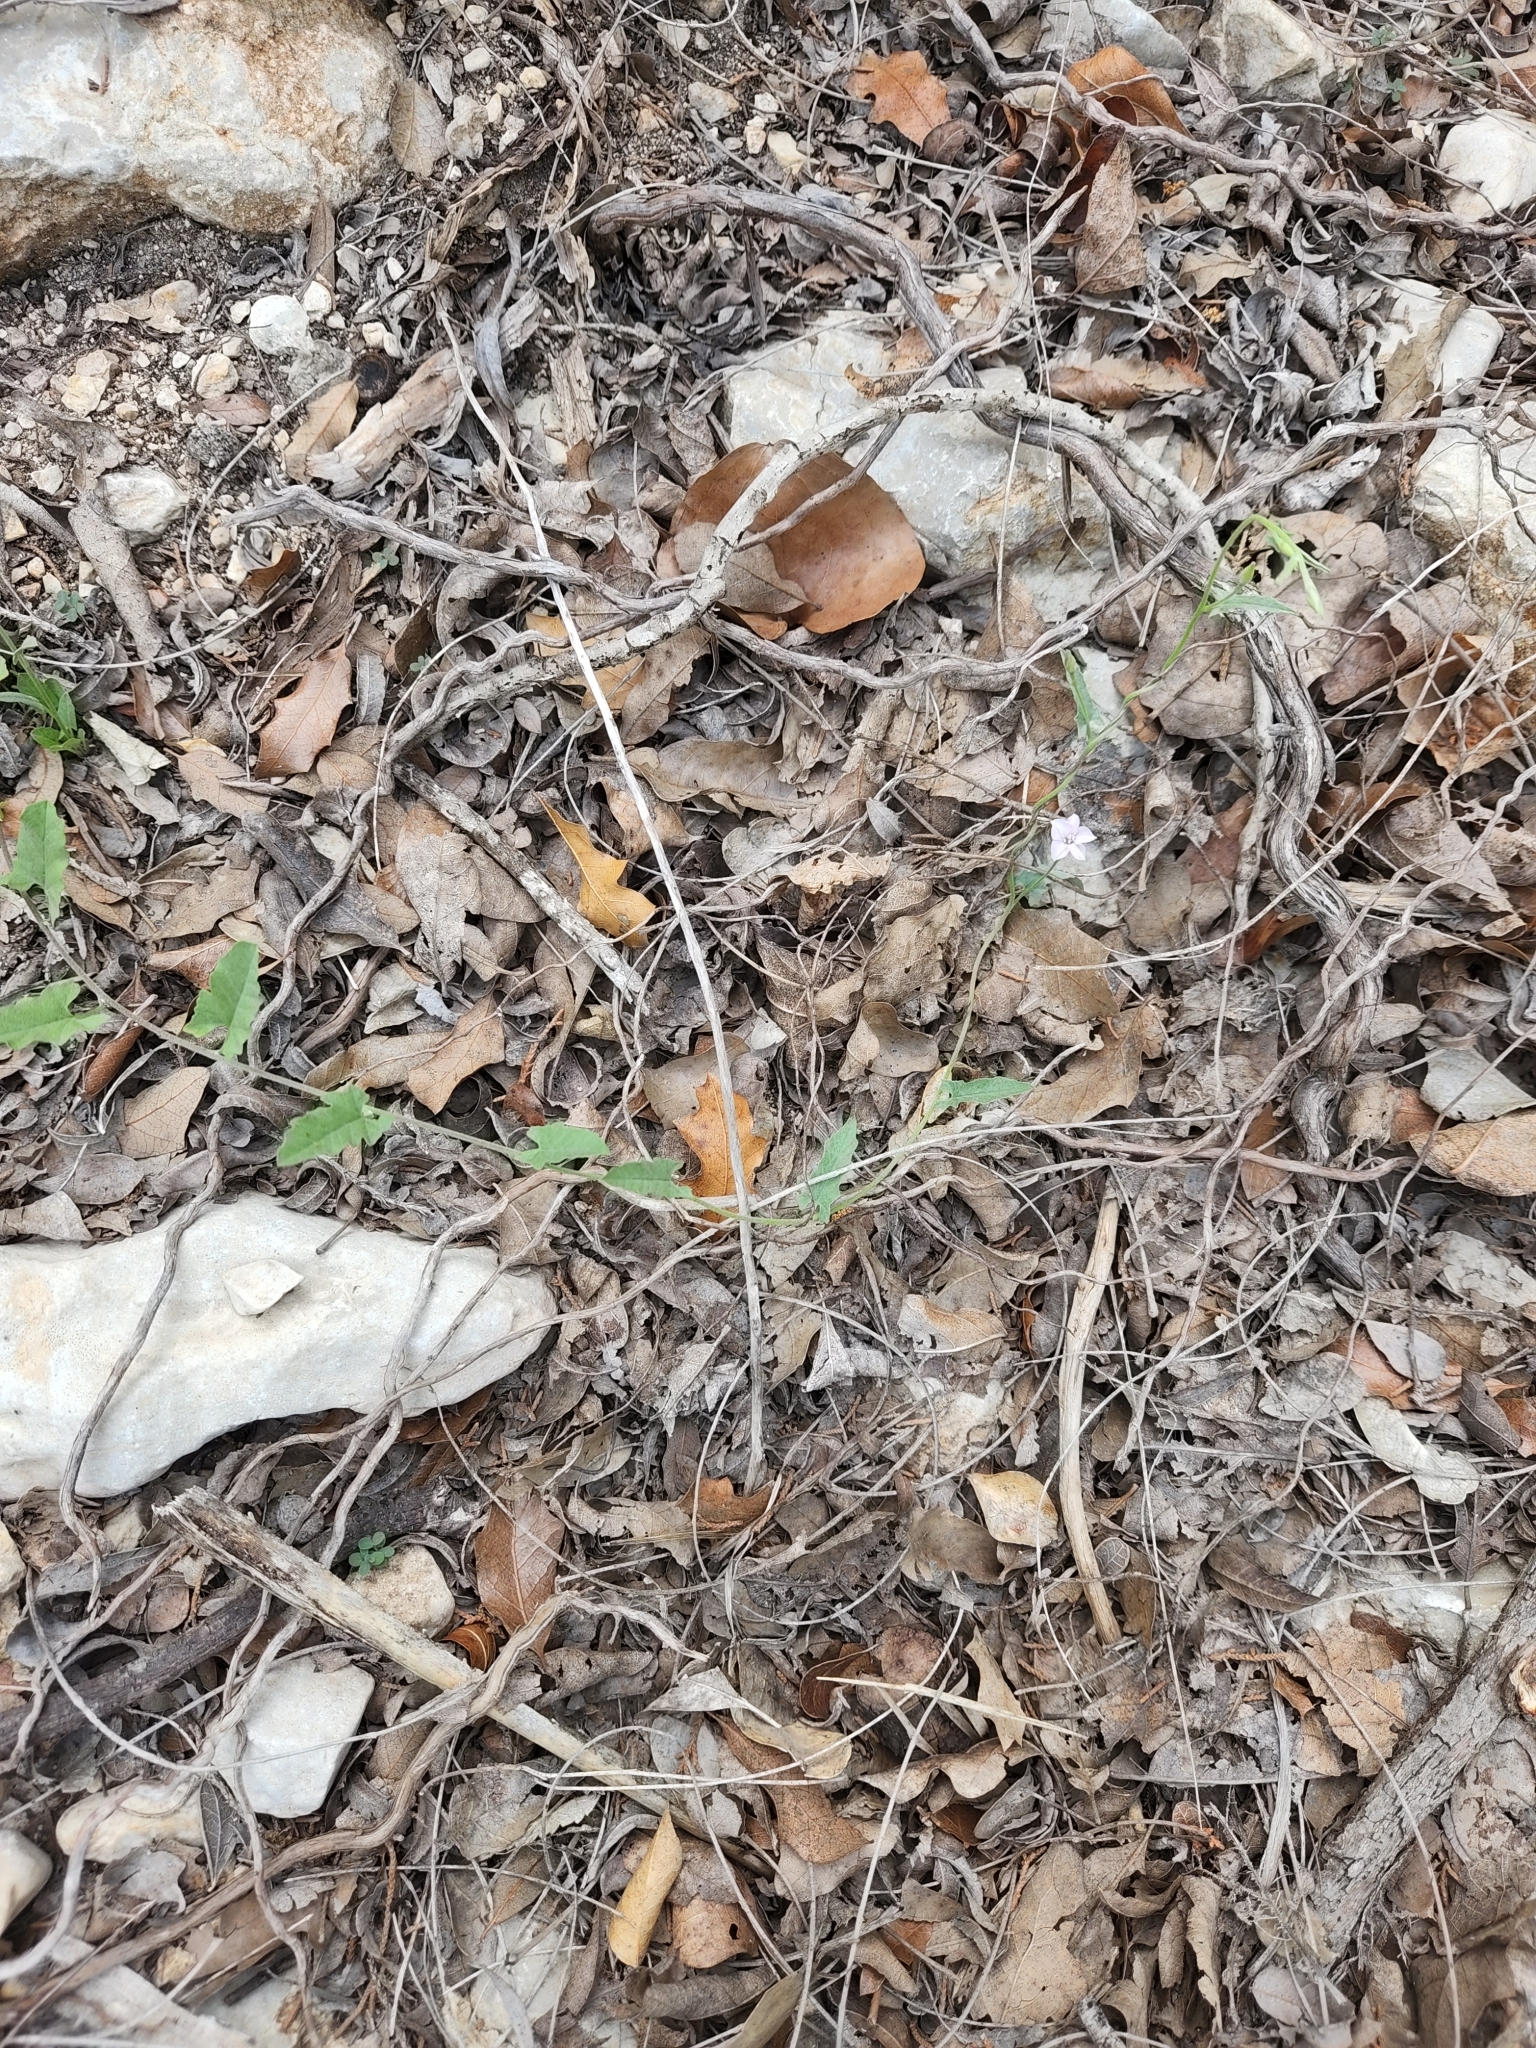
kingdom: Plantae
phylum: Tracheophyta
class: Magnoliopsida
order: Solanales
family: Convolvulaceae
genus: Convolvulus
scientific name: Convolvulus equitans
